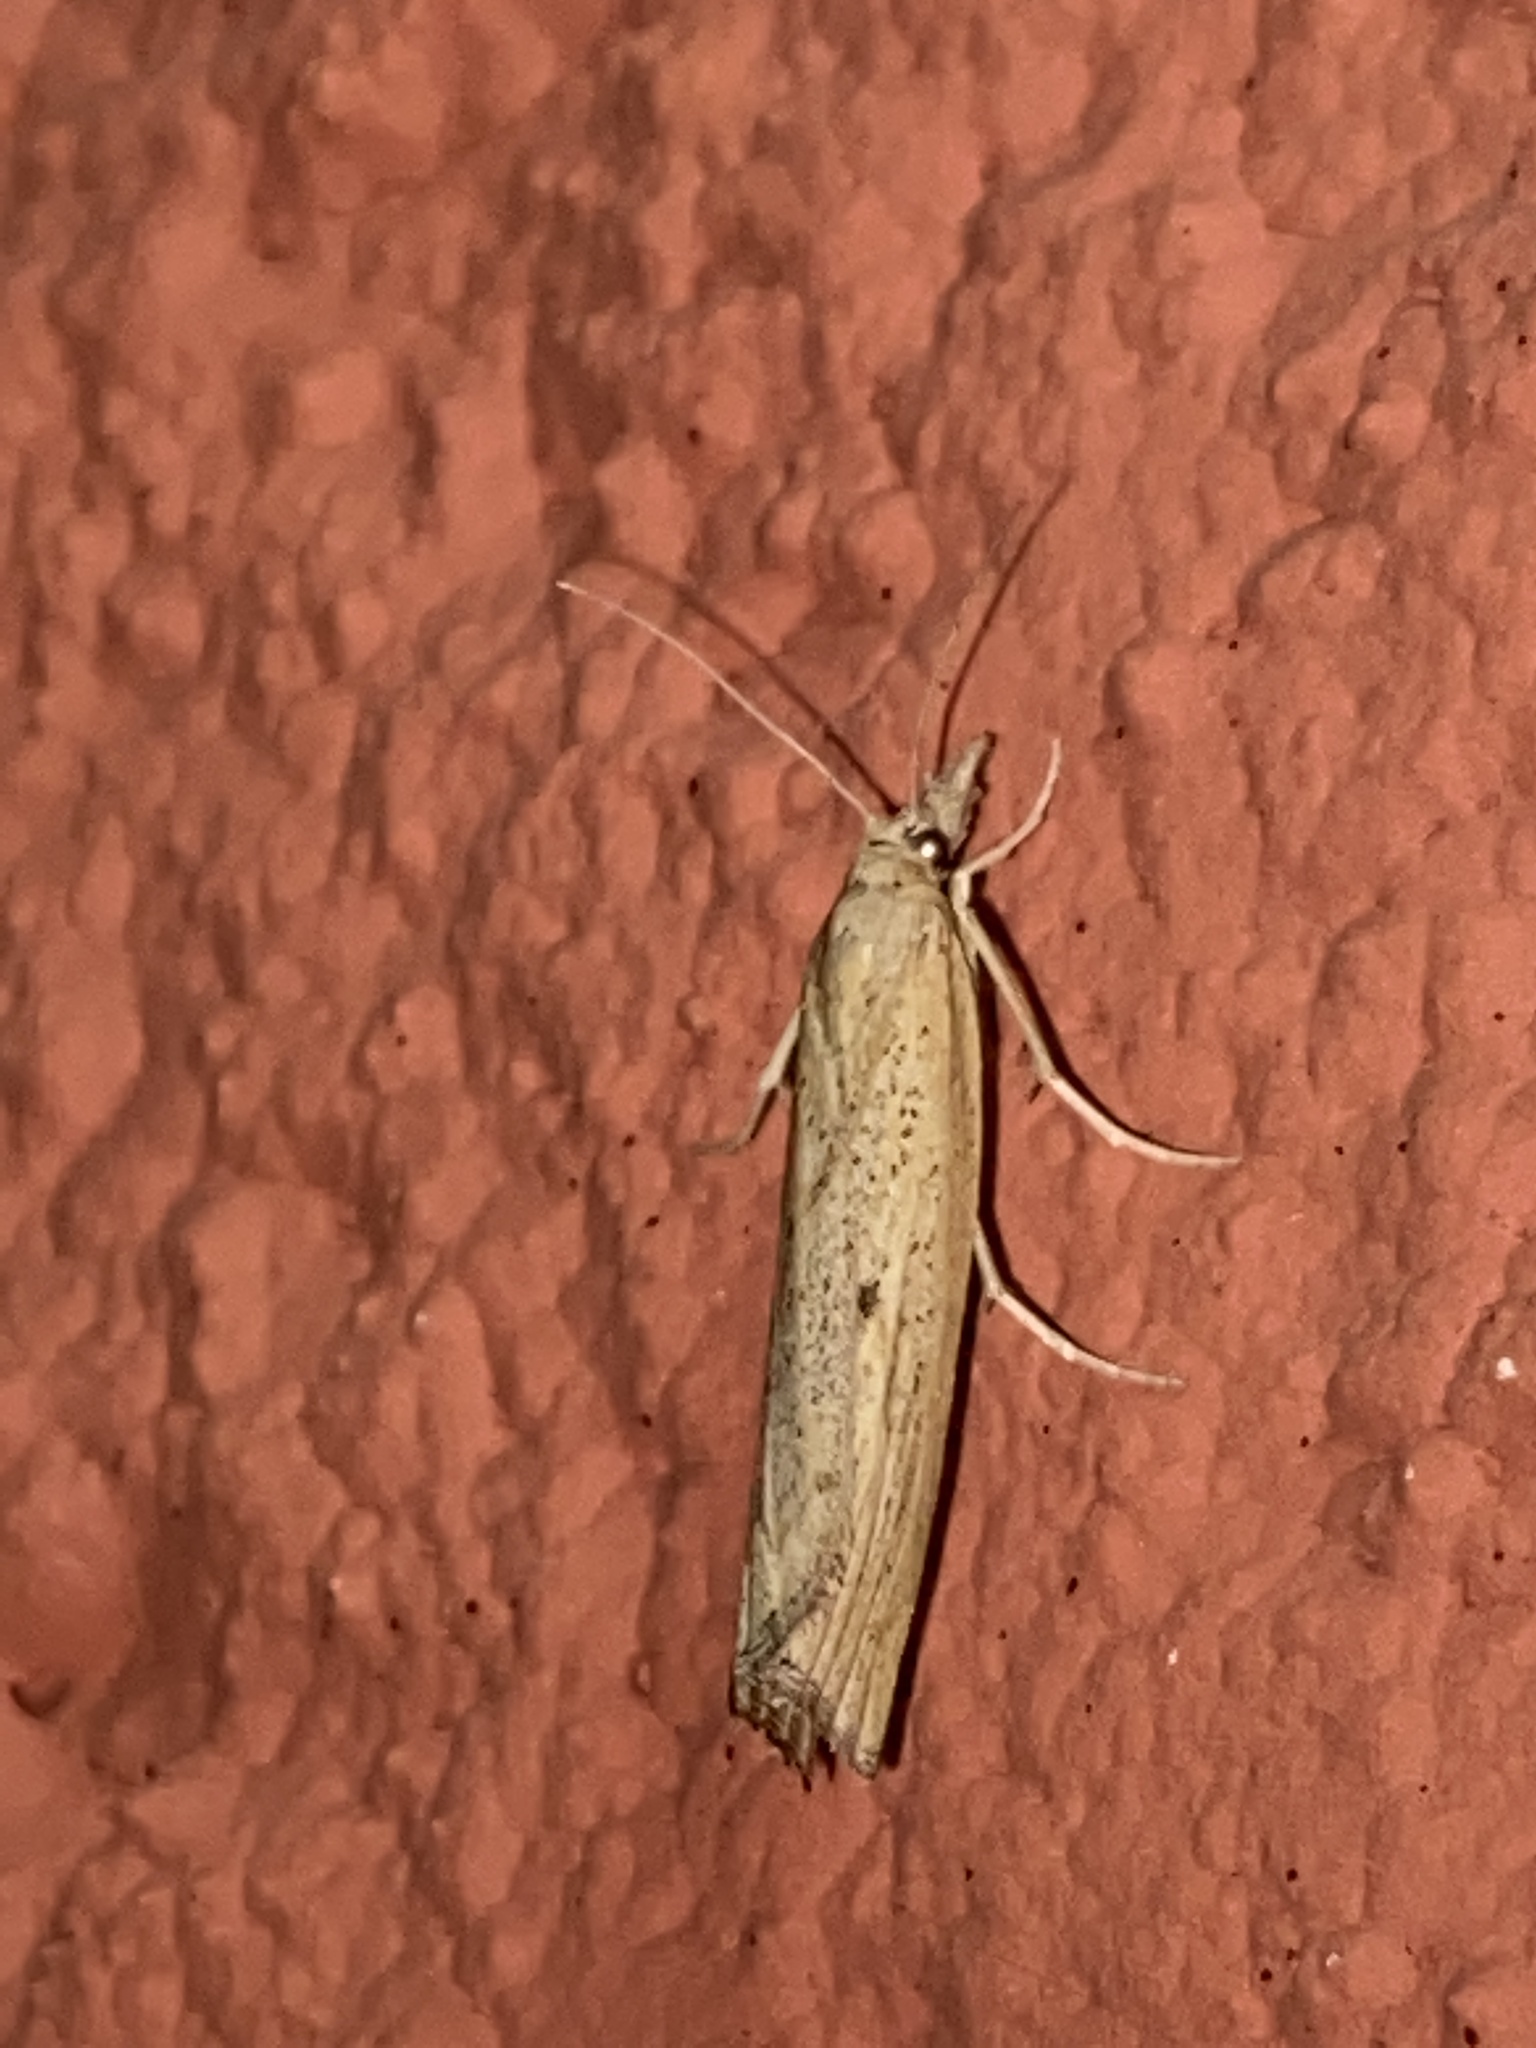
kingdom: Animalia
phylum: Arthropoda
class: Insecta
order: Lepidoptera
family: Crambidae
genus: Pediasia
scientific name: Pediasia contaminella
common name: Waste grass-veneer
